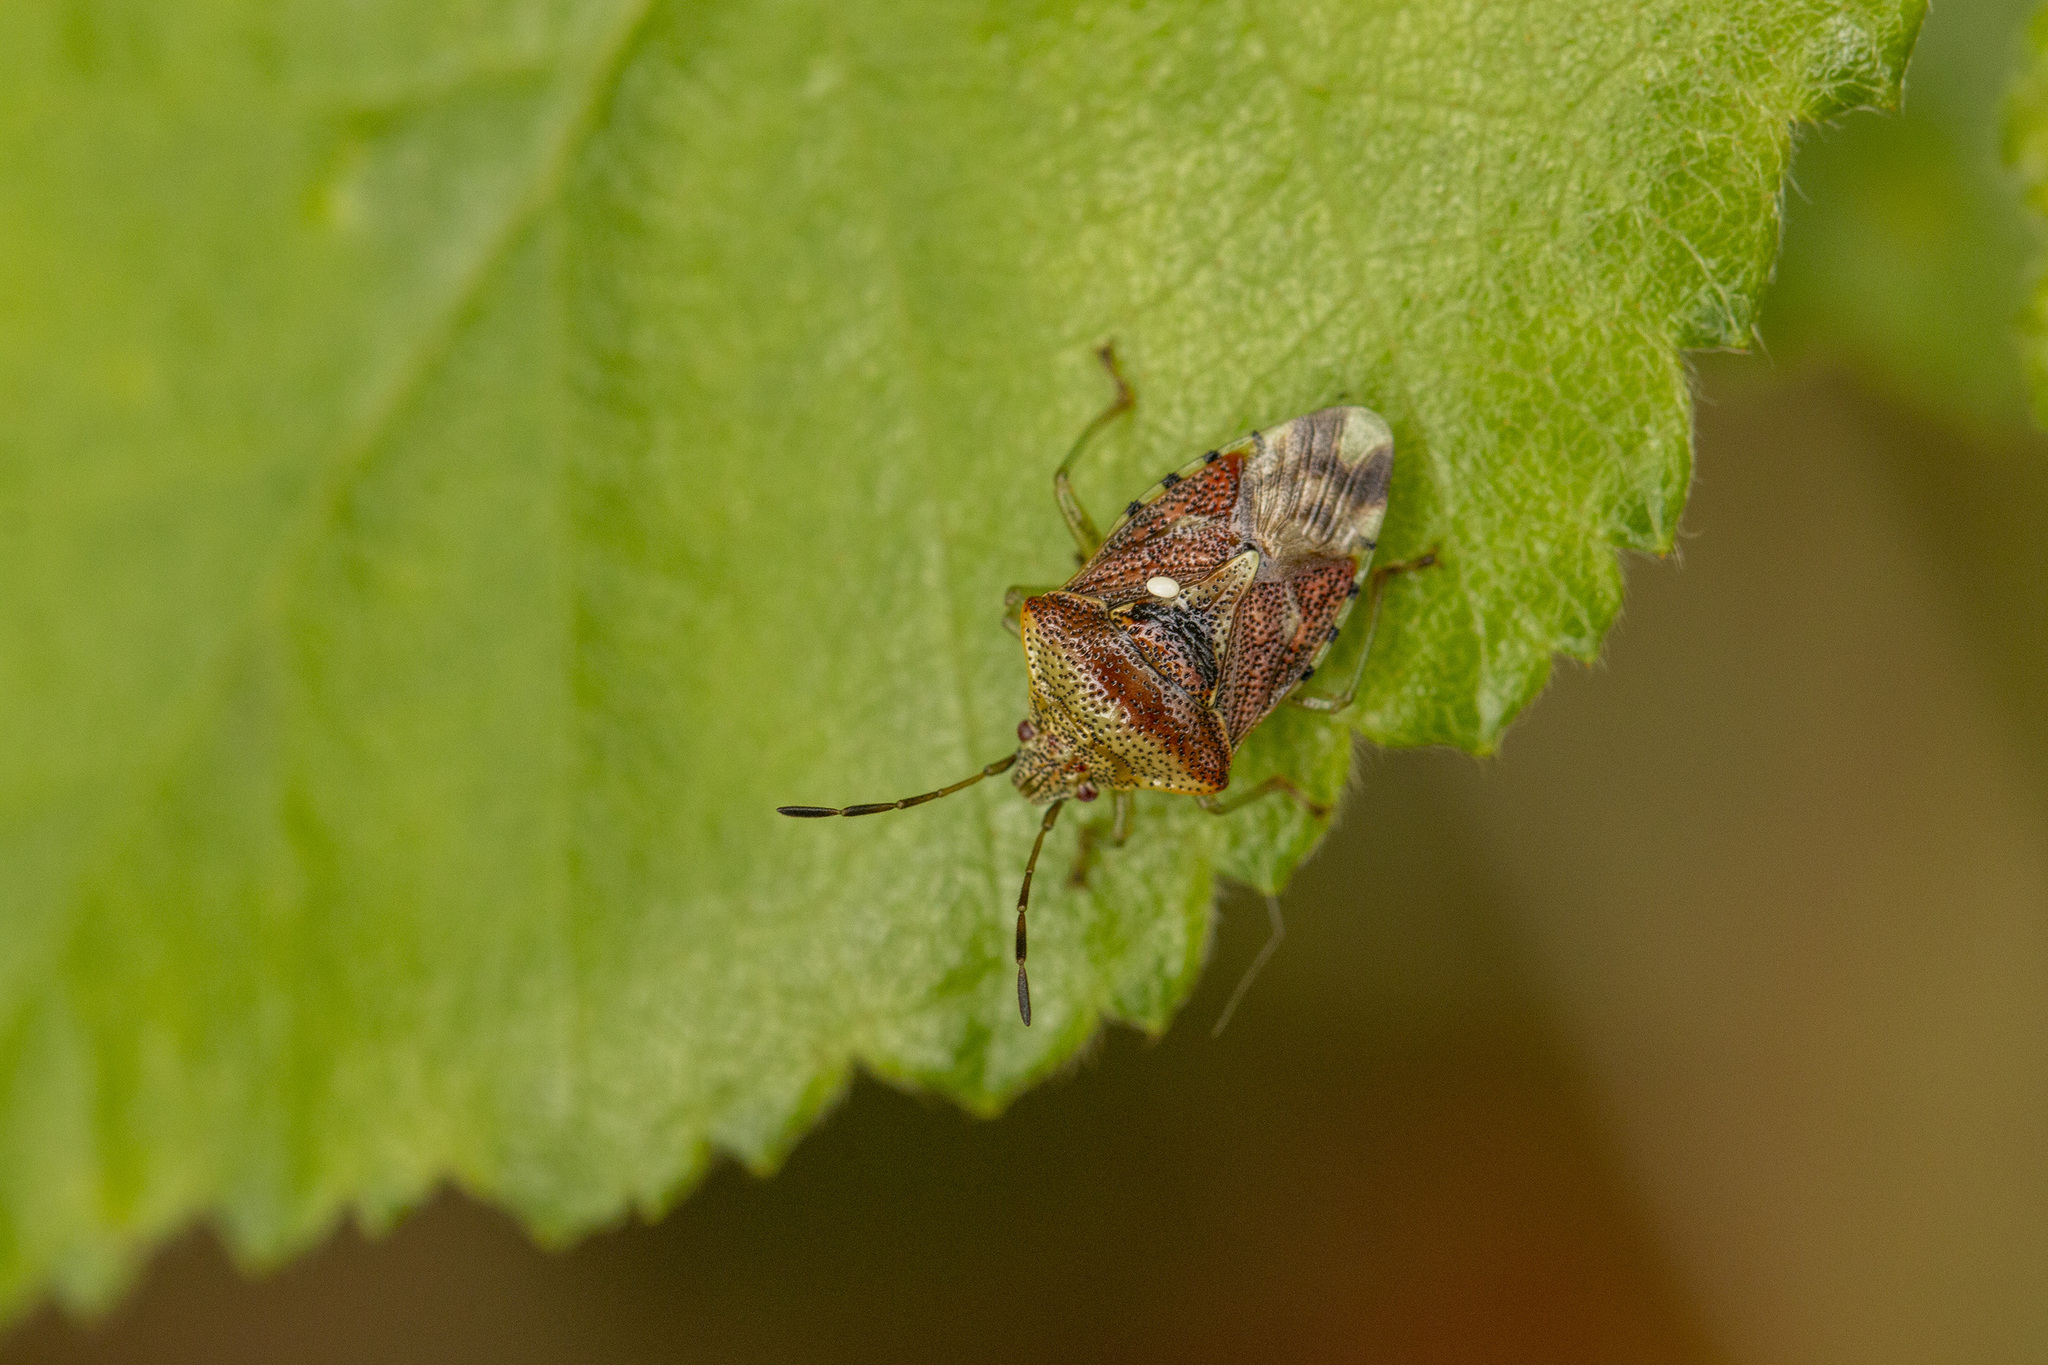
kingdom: Animalia
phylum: Arthropoda
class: Insecta
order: Hemiptera
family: Acanthosomatidae
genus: Elasmucha
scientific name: Elasmucha grisea
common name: Parent bug
